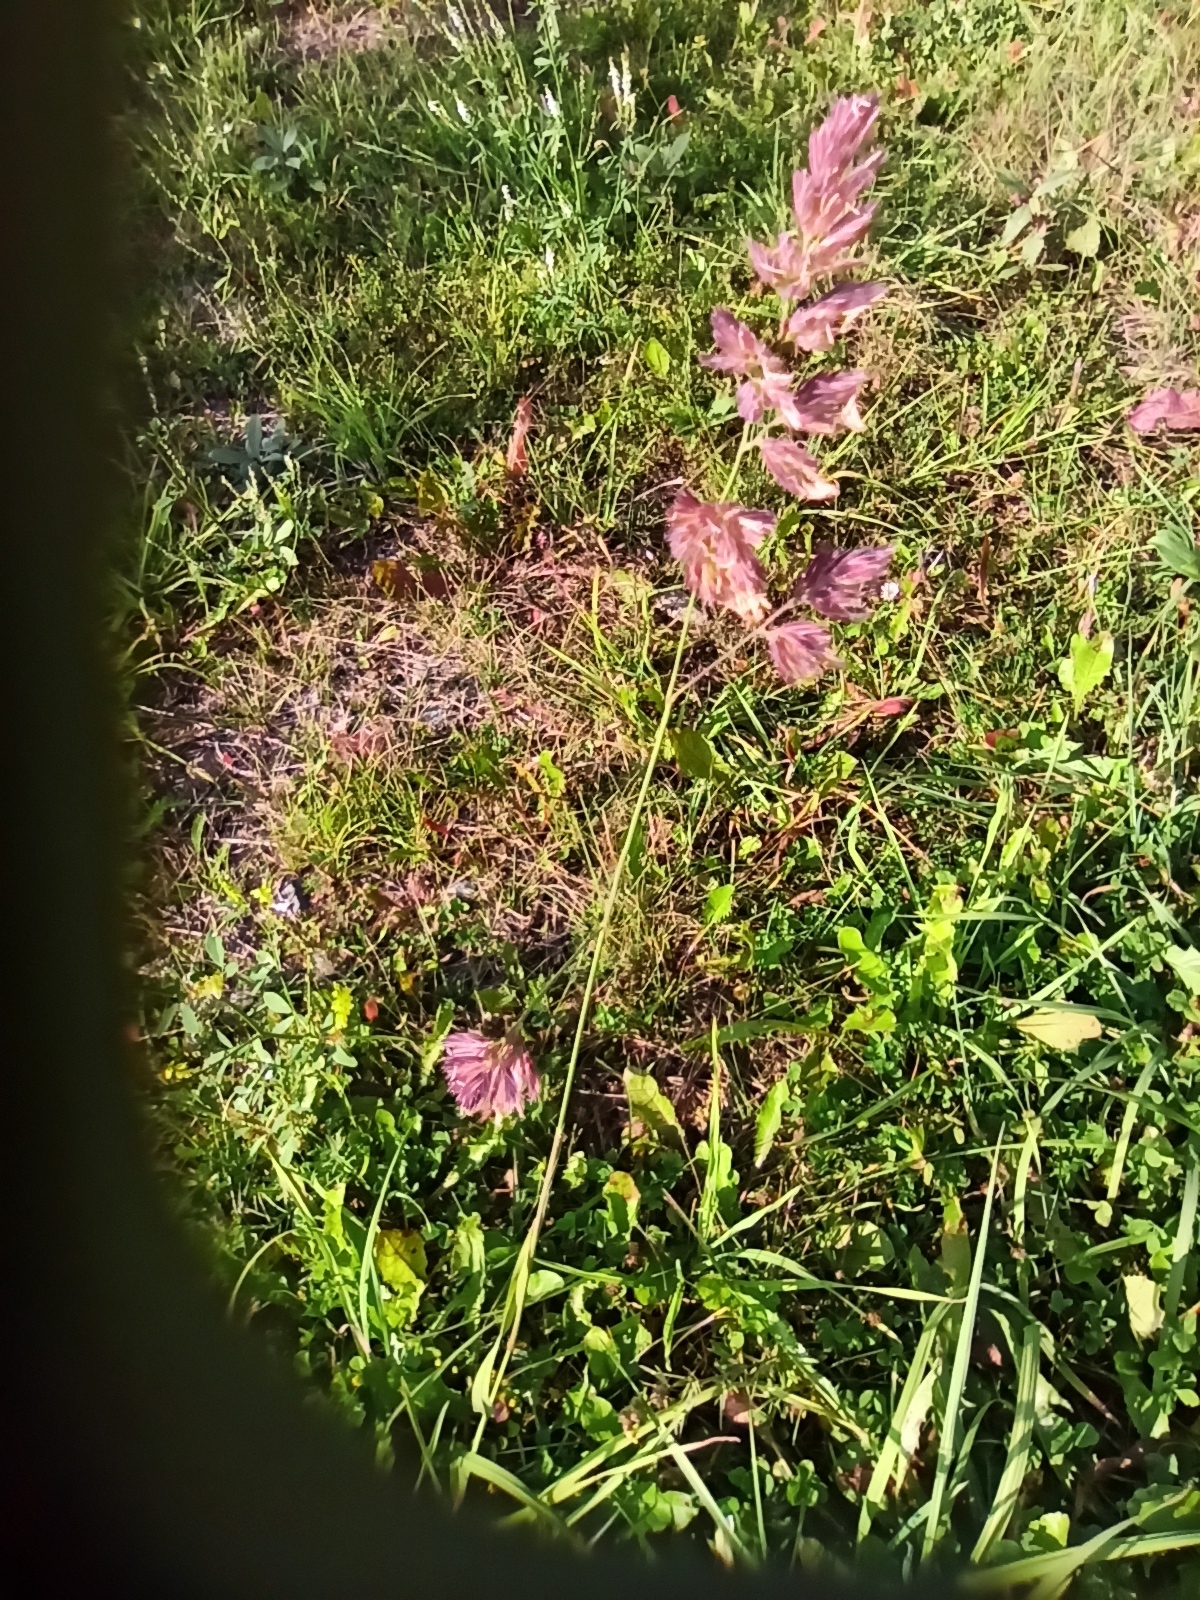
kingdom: Plantae
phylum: Tracheophyta
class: Liliopsida
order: Poales
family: Poaceae
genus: Dactylis
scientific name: Dactylis glomerata
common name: Orchardgrass
